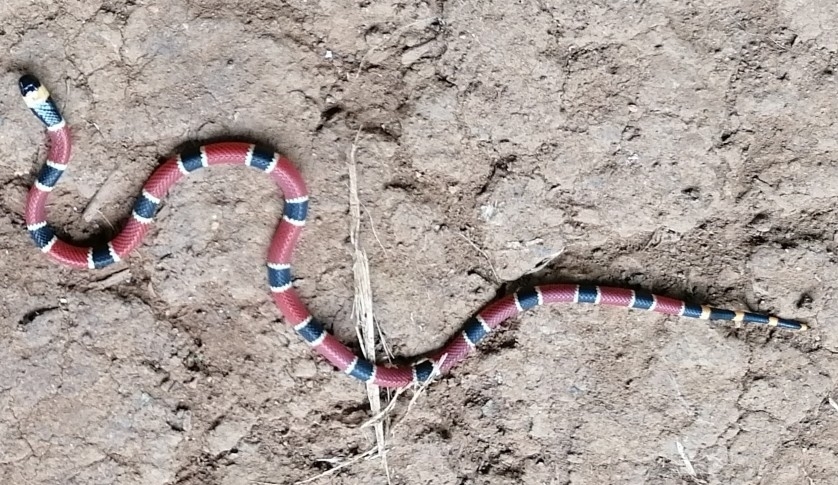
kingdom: Animalia
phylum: Chordata
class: Squamata
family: Elapidae
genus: Micrurus
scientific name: Micrurus nigrocinctus
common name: Babaspul [babaspul]
